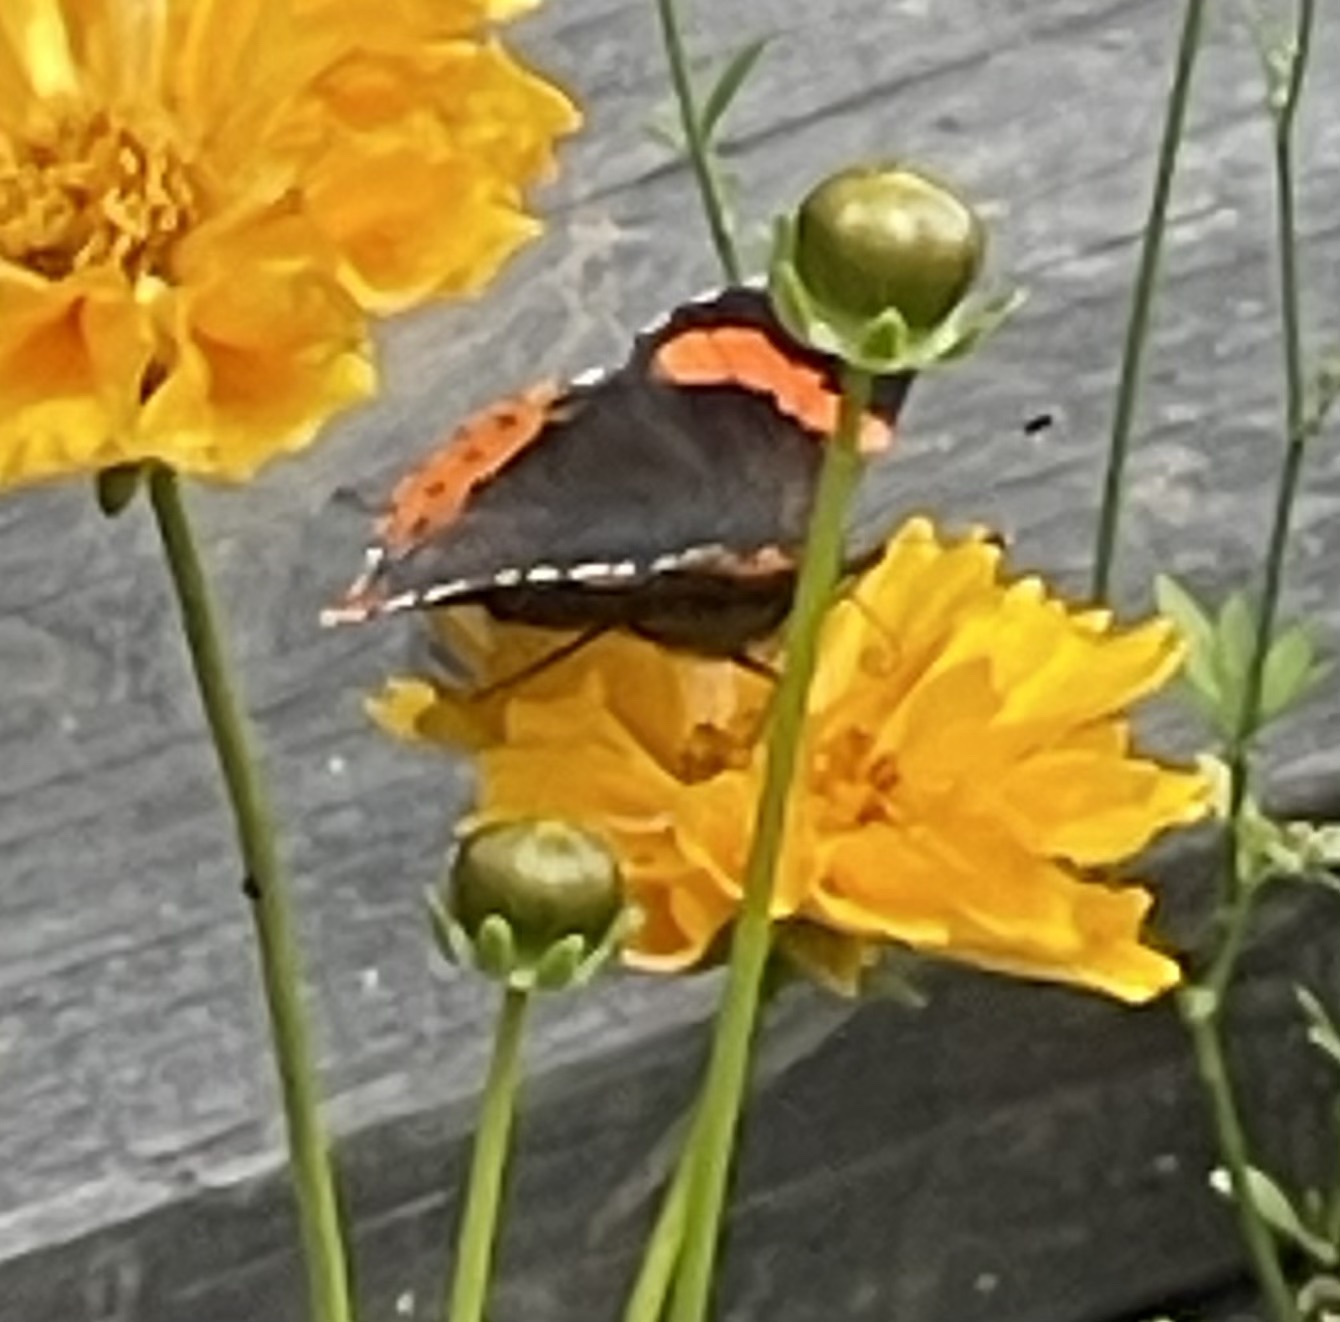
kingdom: Animalia
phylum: Arthropoda
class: Insecta
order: Lepidoptera
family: Nymphalidae
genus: Vanessa
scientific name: Vanessa atalanta
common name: Red admiral
